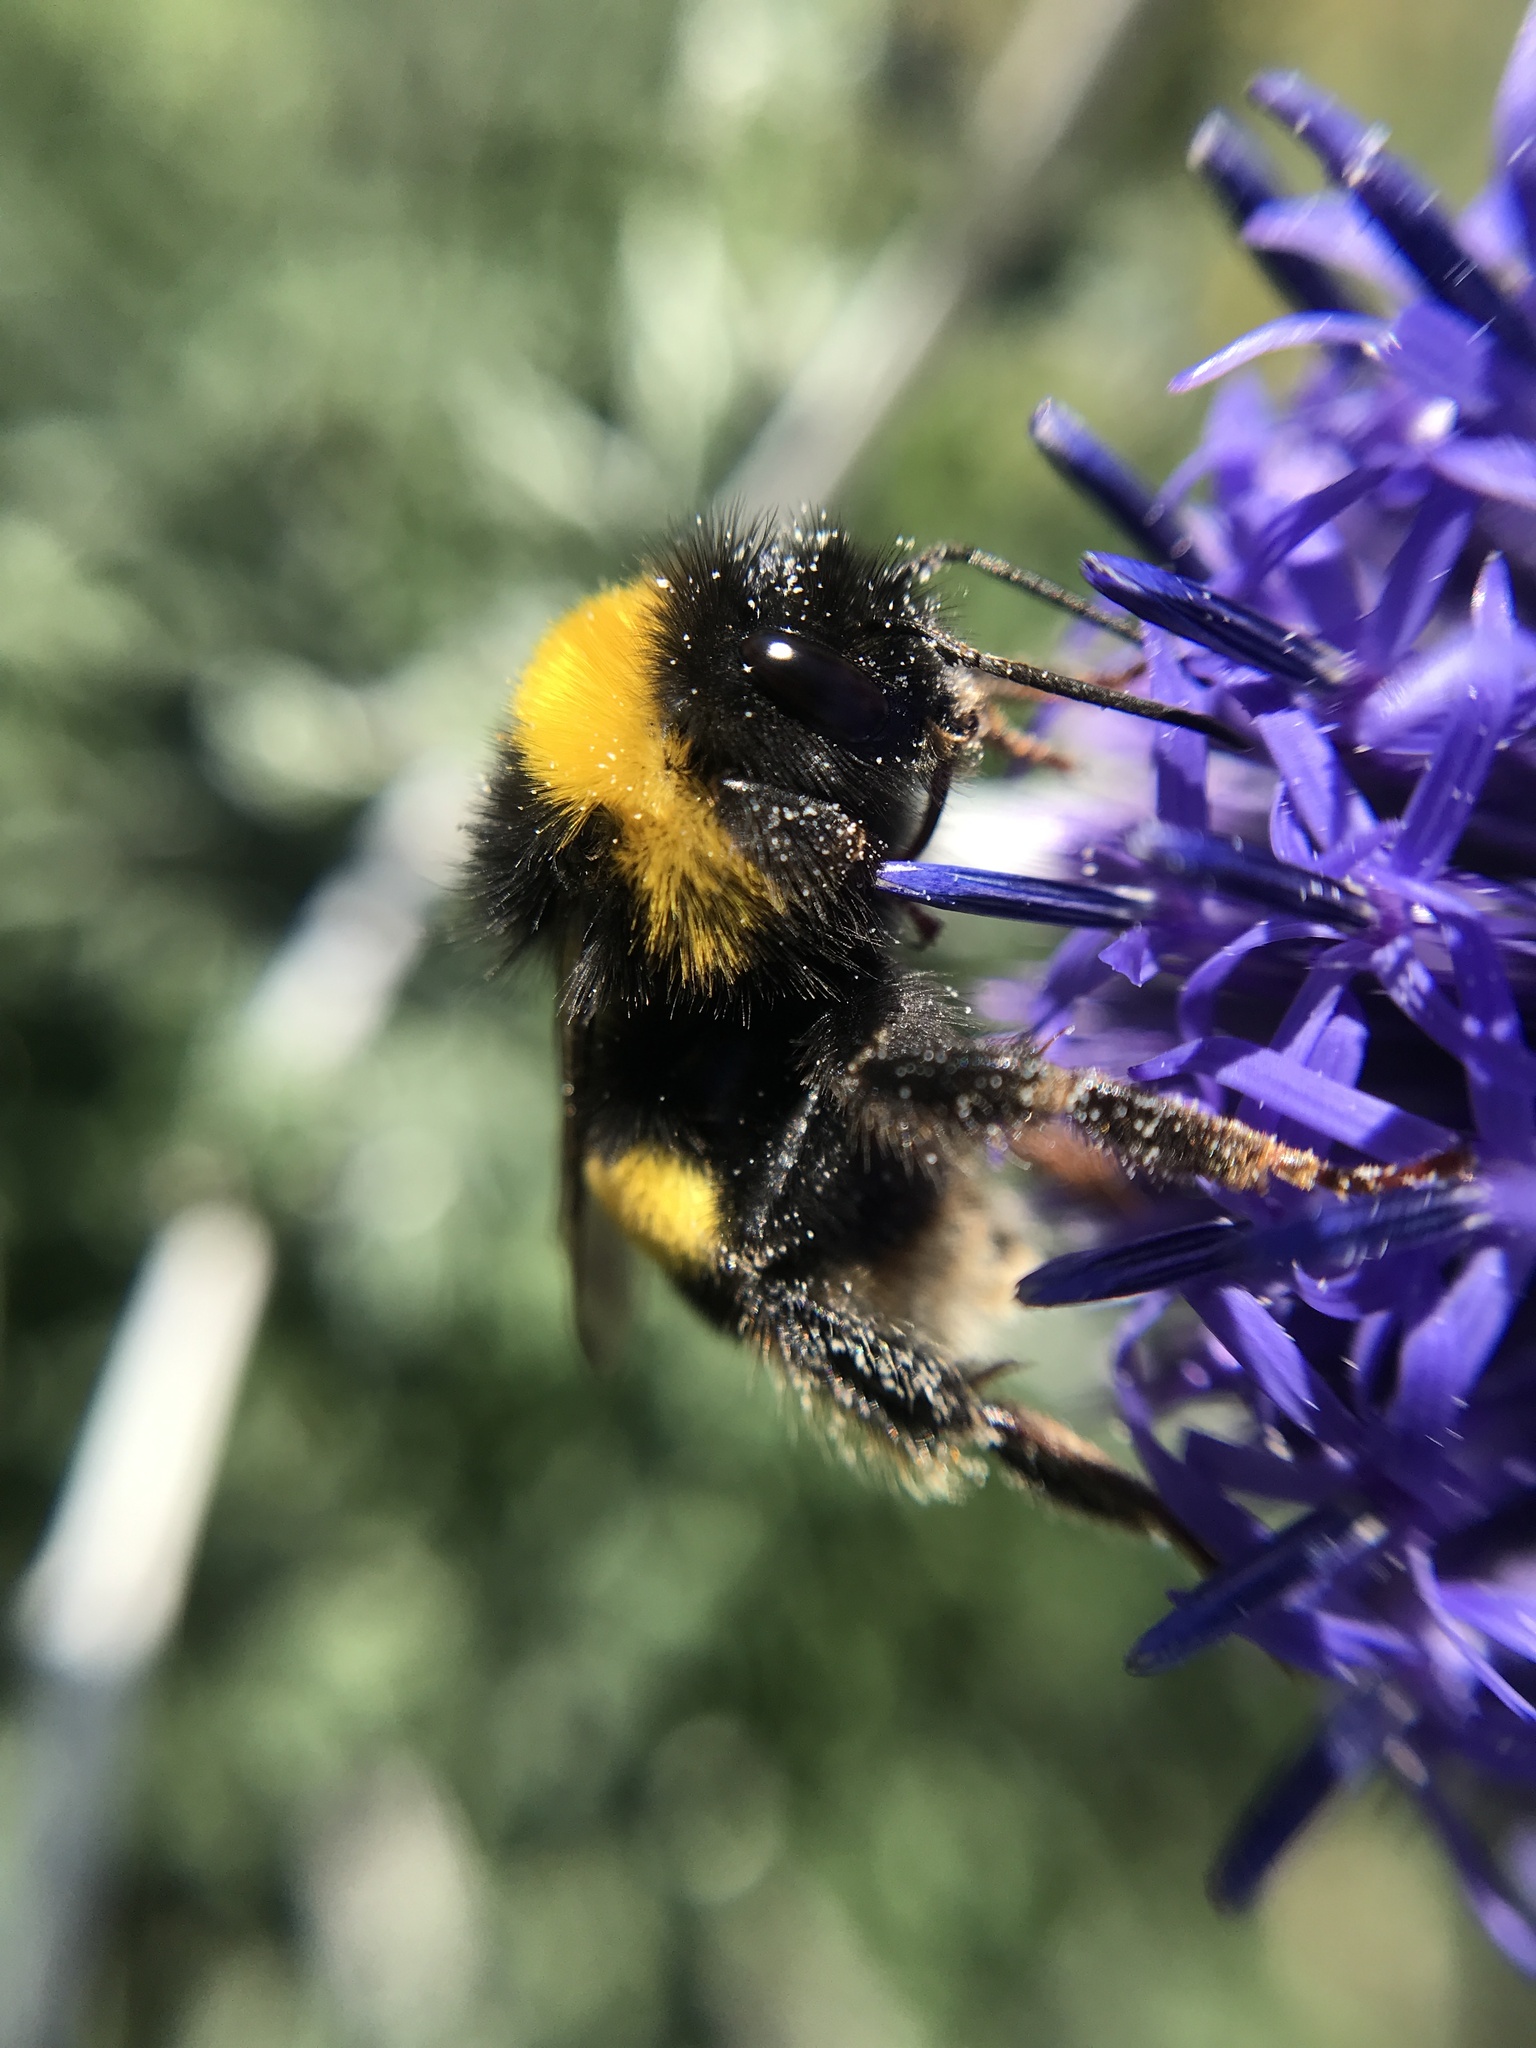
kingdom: Animalia
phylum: Arthropoda
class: Insecta
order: Hymenoptera
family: Apidae
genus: Bombus
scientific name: Bombus terrestris
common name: Buff-tailed bumblebee
